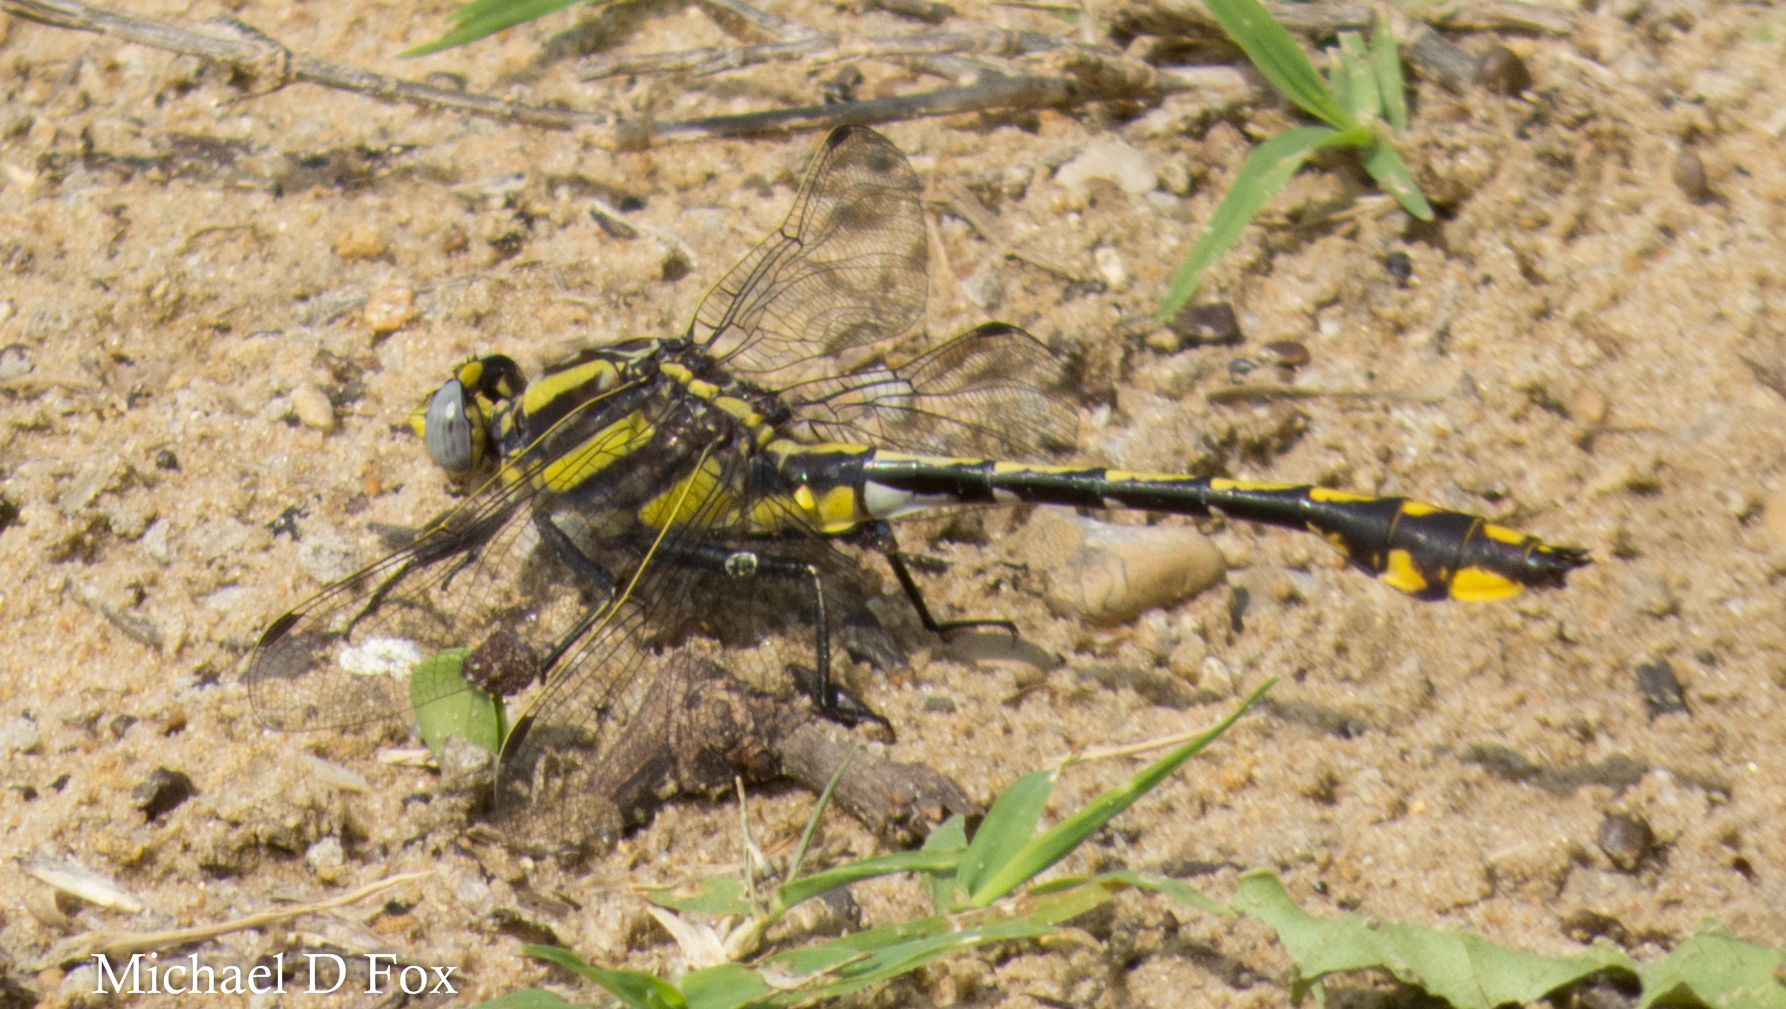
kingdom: Animalia
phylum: Arthropoda
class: Insecta
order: Odonata
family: Gomphidae
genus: Gomphurus
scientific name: Gomphurus externus
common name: Plains clubtail
